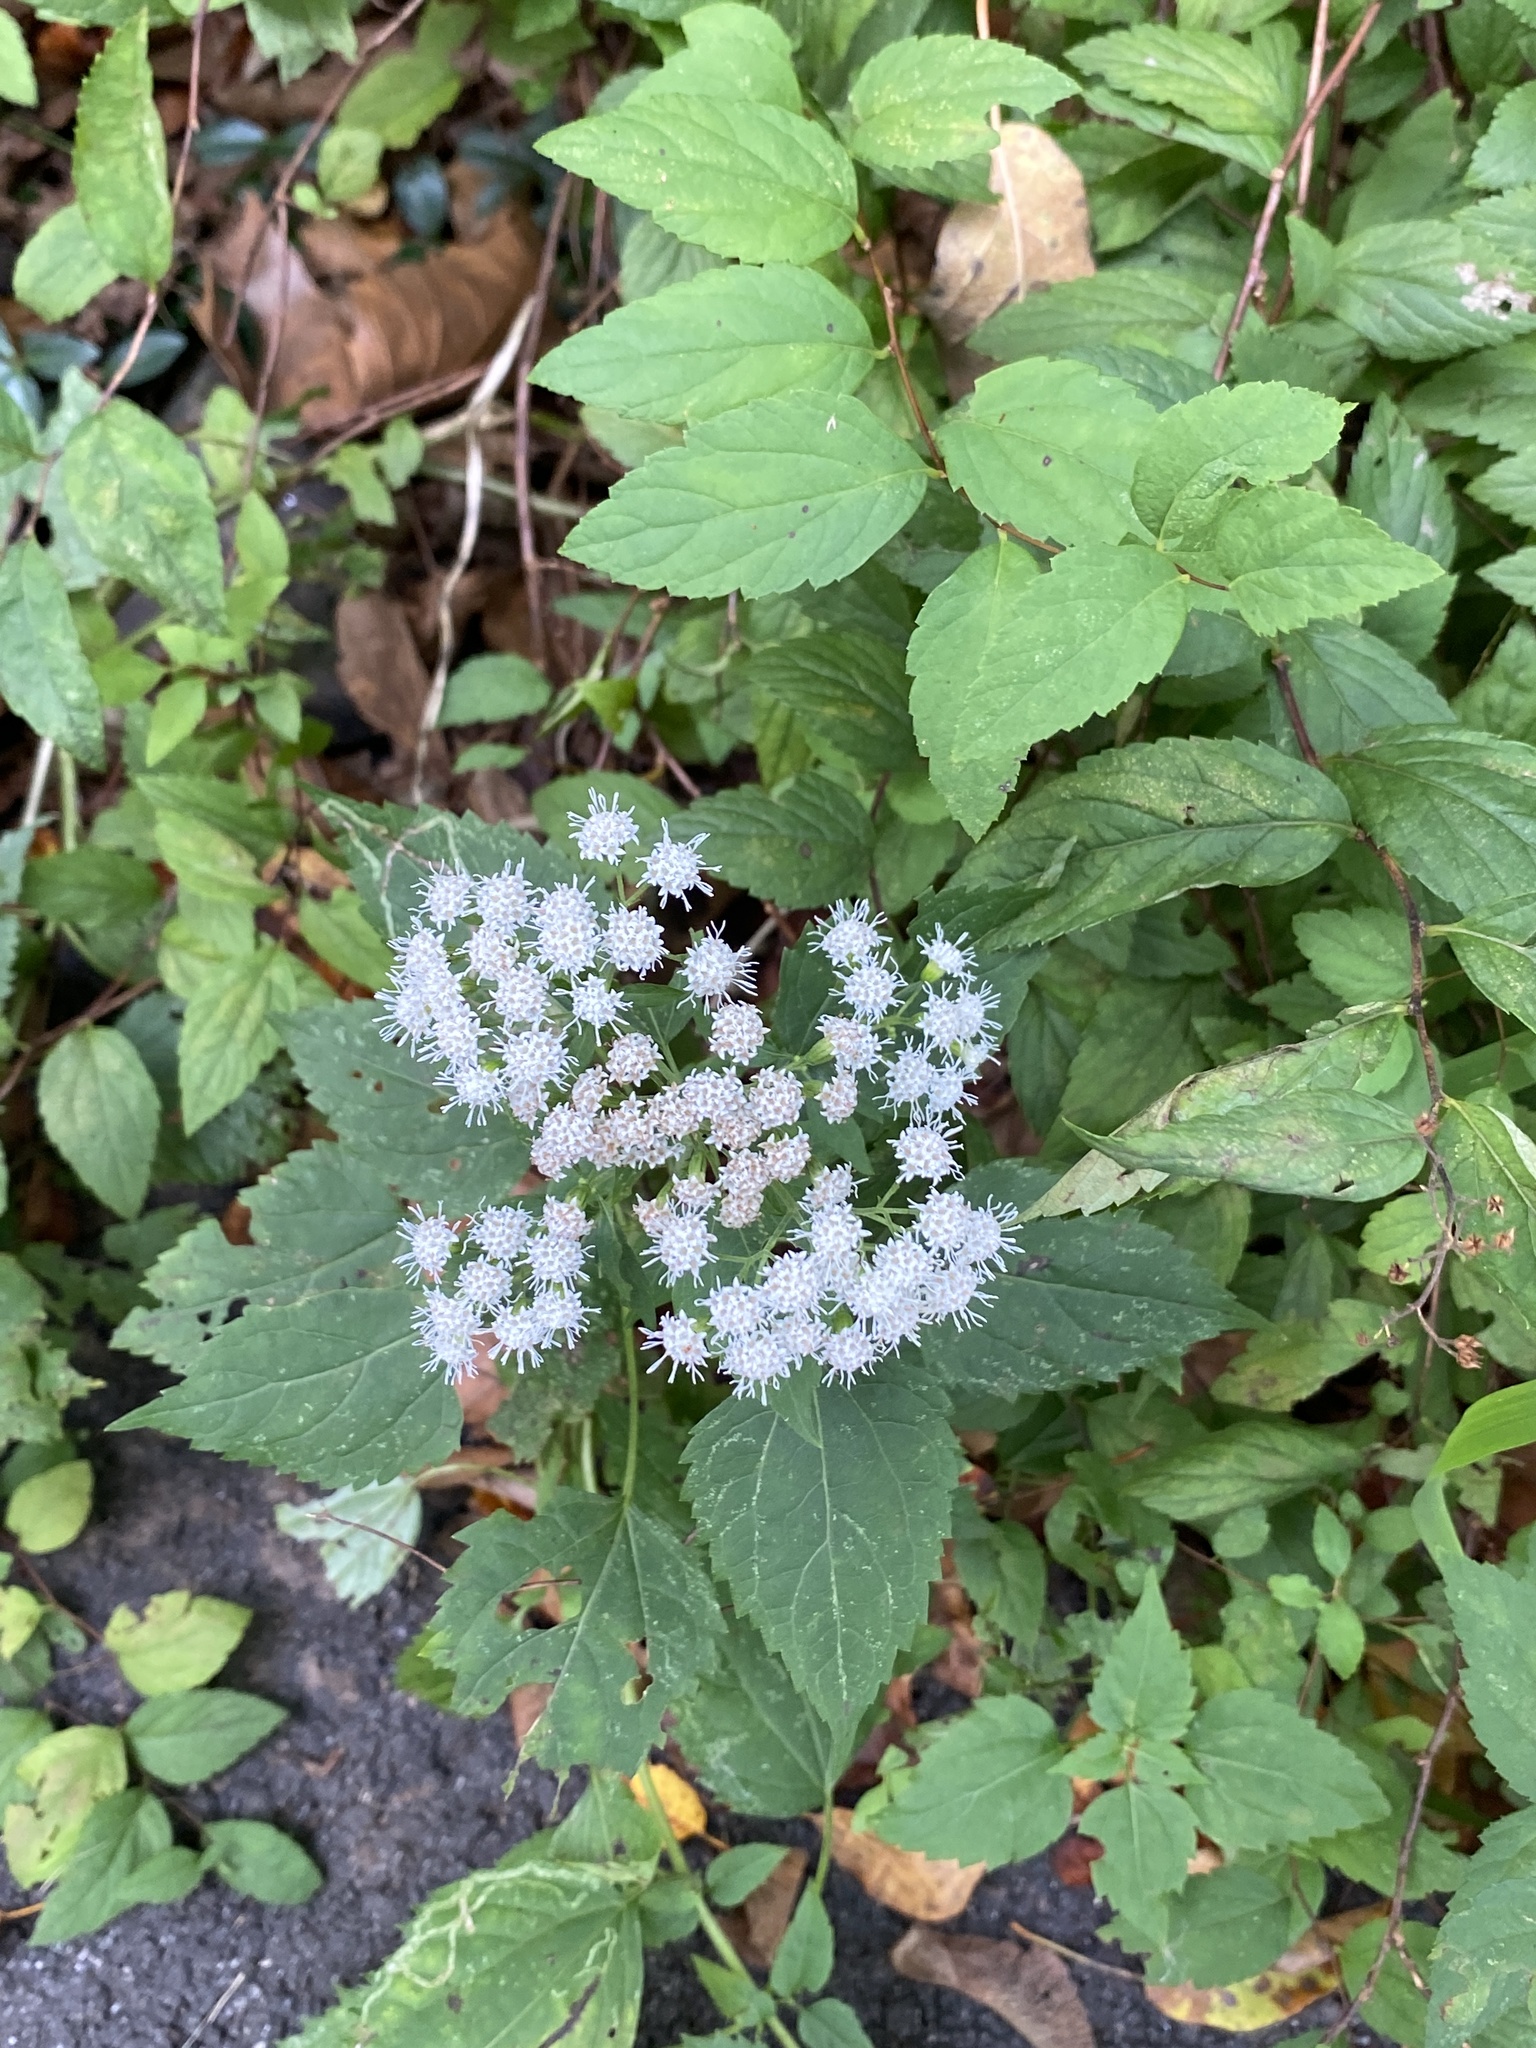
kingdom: Plantae
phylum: Tracheophyta
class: Magnoliopsida
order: Asterales
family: Asteraceae
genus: Ageratina
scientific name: Ageratina altissima
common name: White snakeroot
